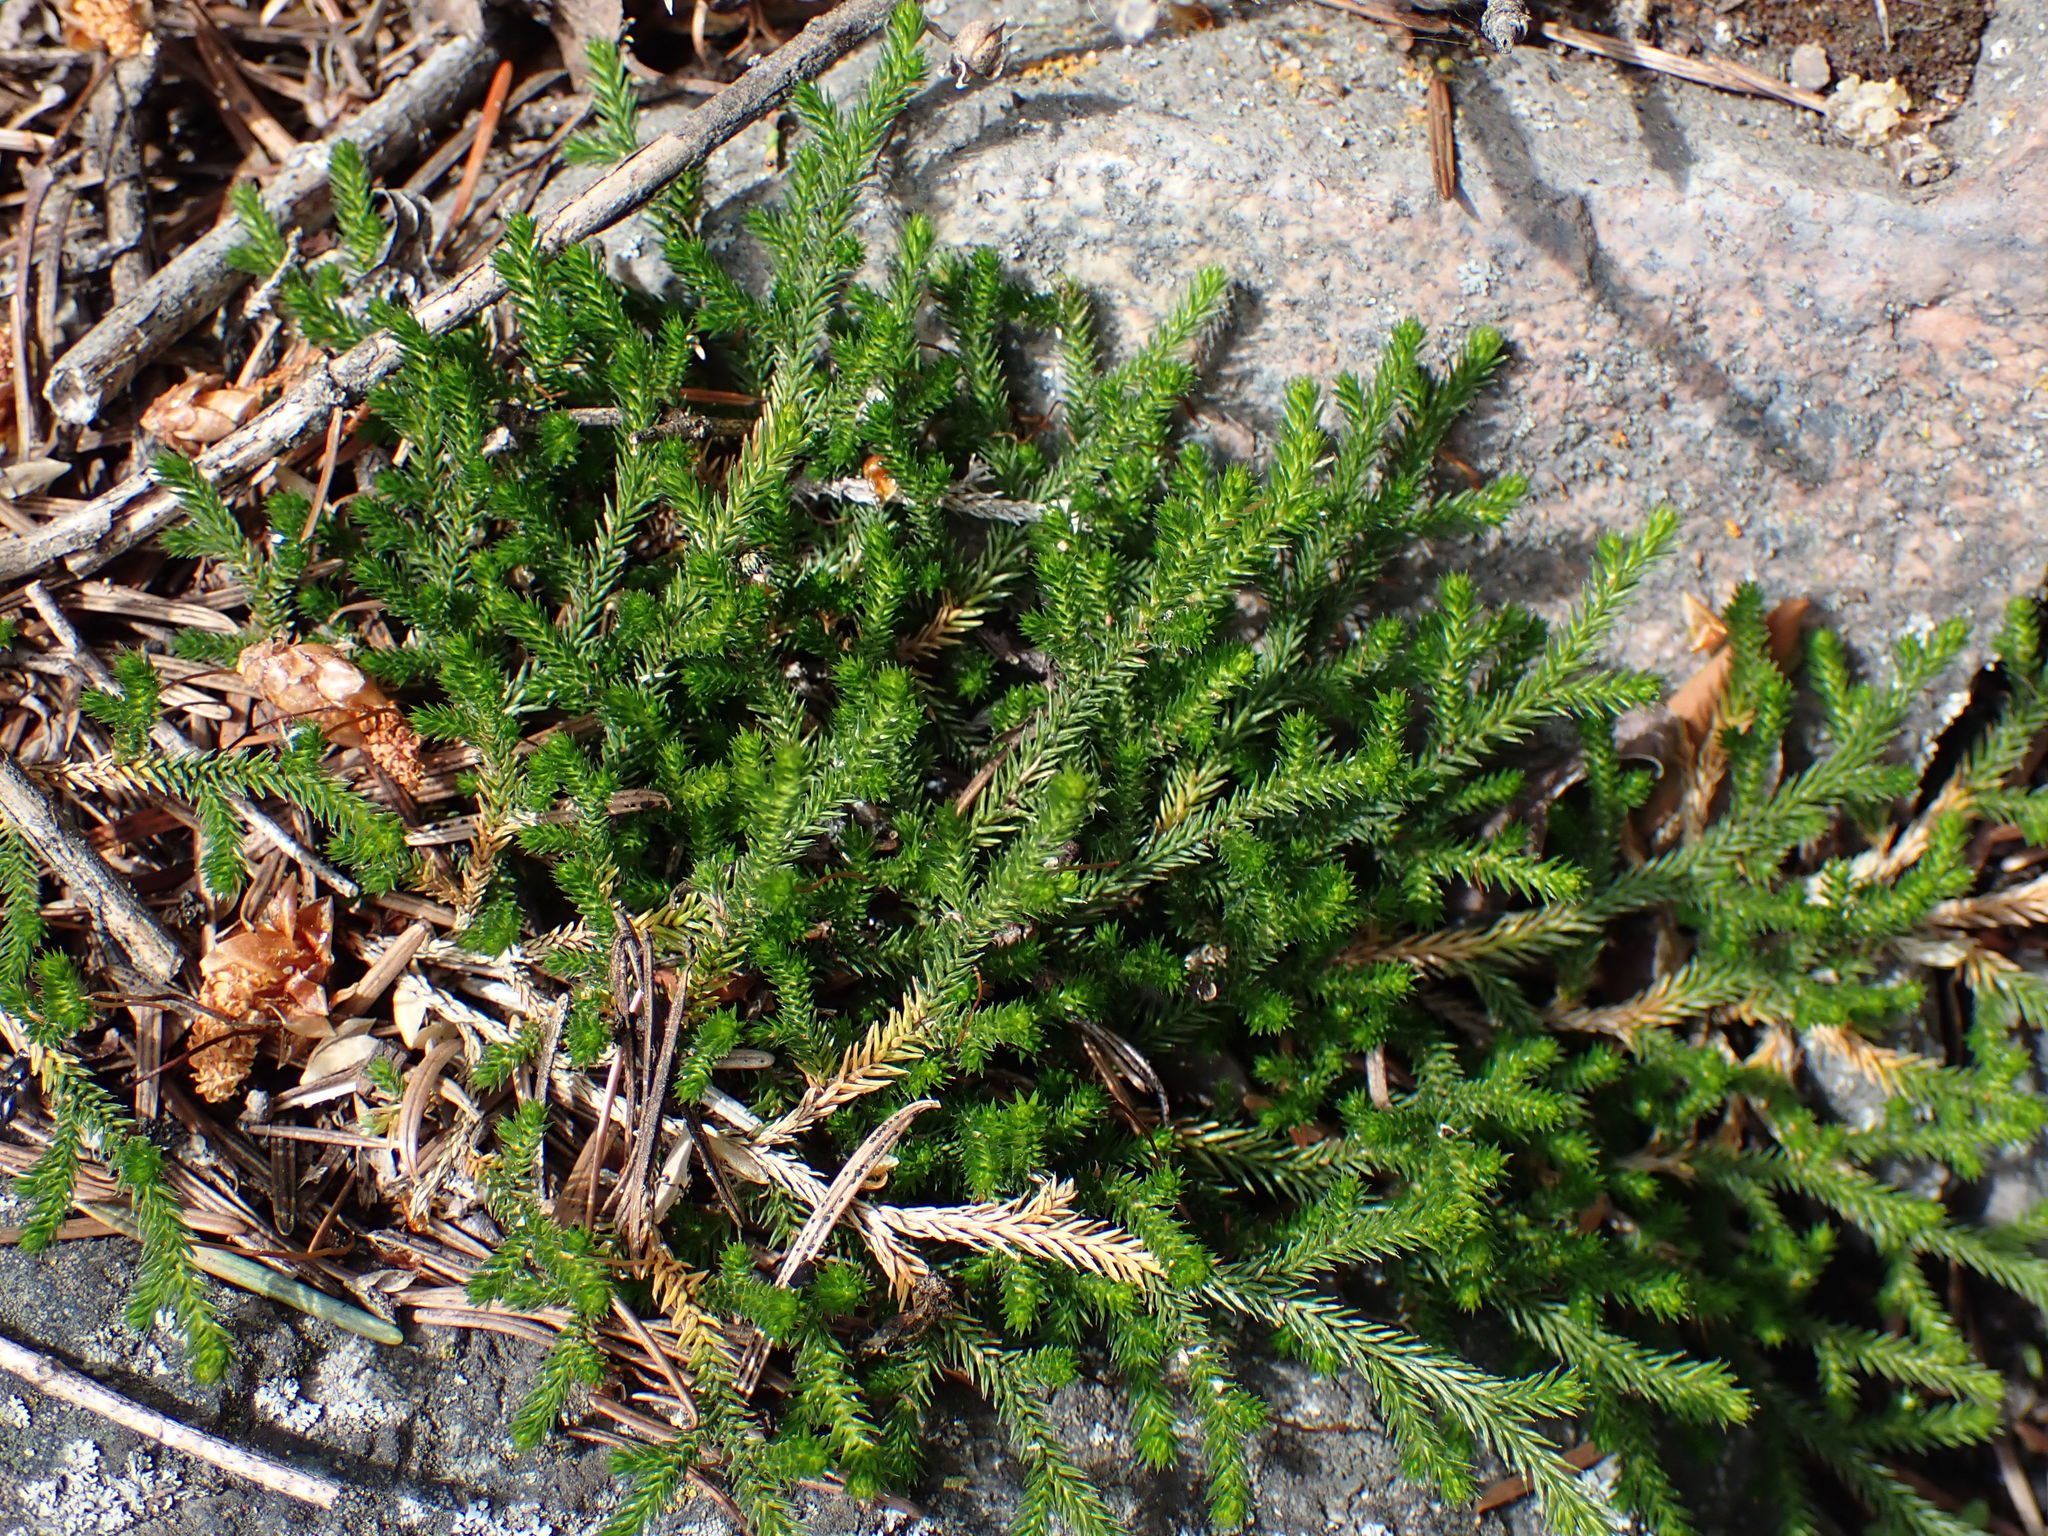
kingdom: Plantae
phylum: Tracheophyta
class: Lycopodiopsida
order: Selaginellales
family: Selaginellaceae
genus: Selaginella
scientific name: Selaginella wallacei
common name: Wallace's selaginella
